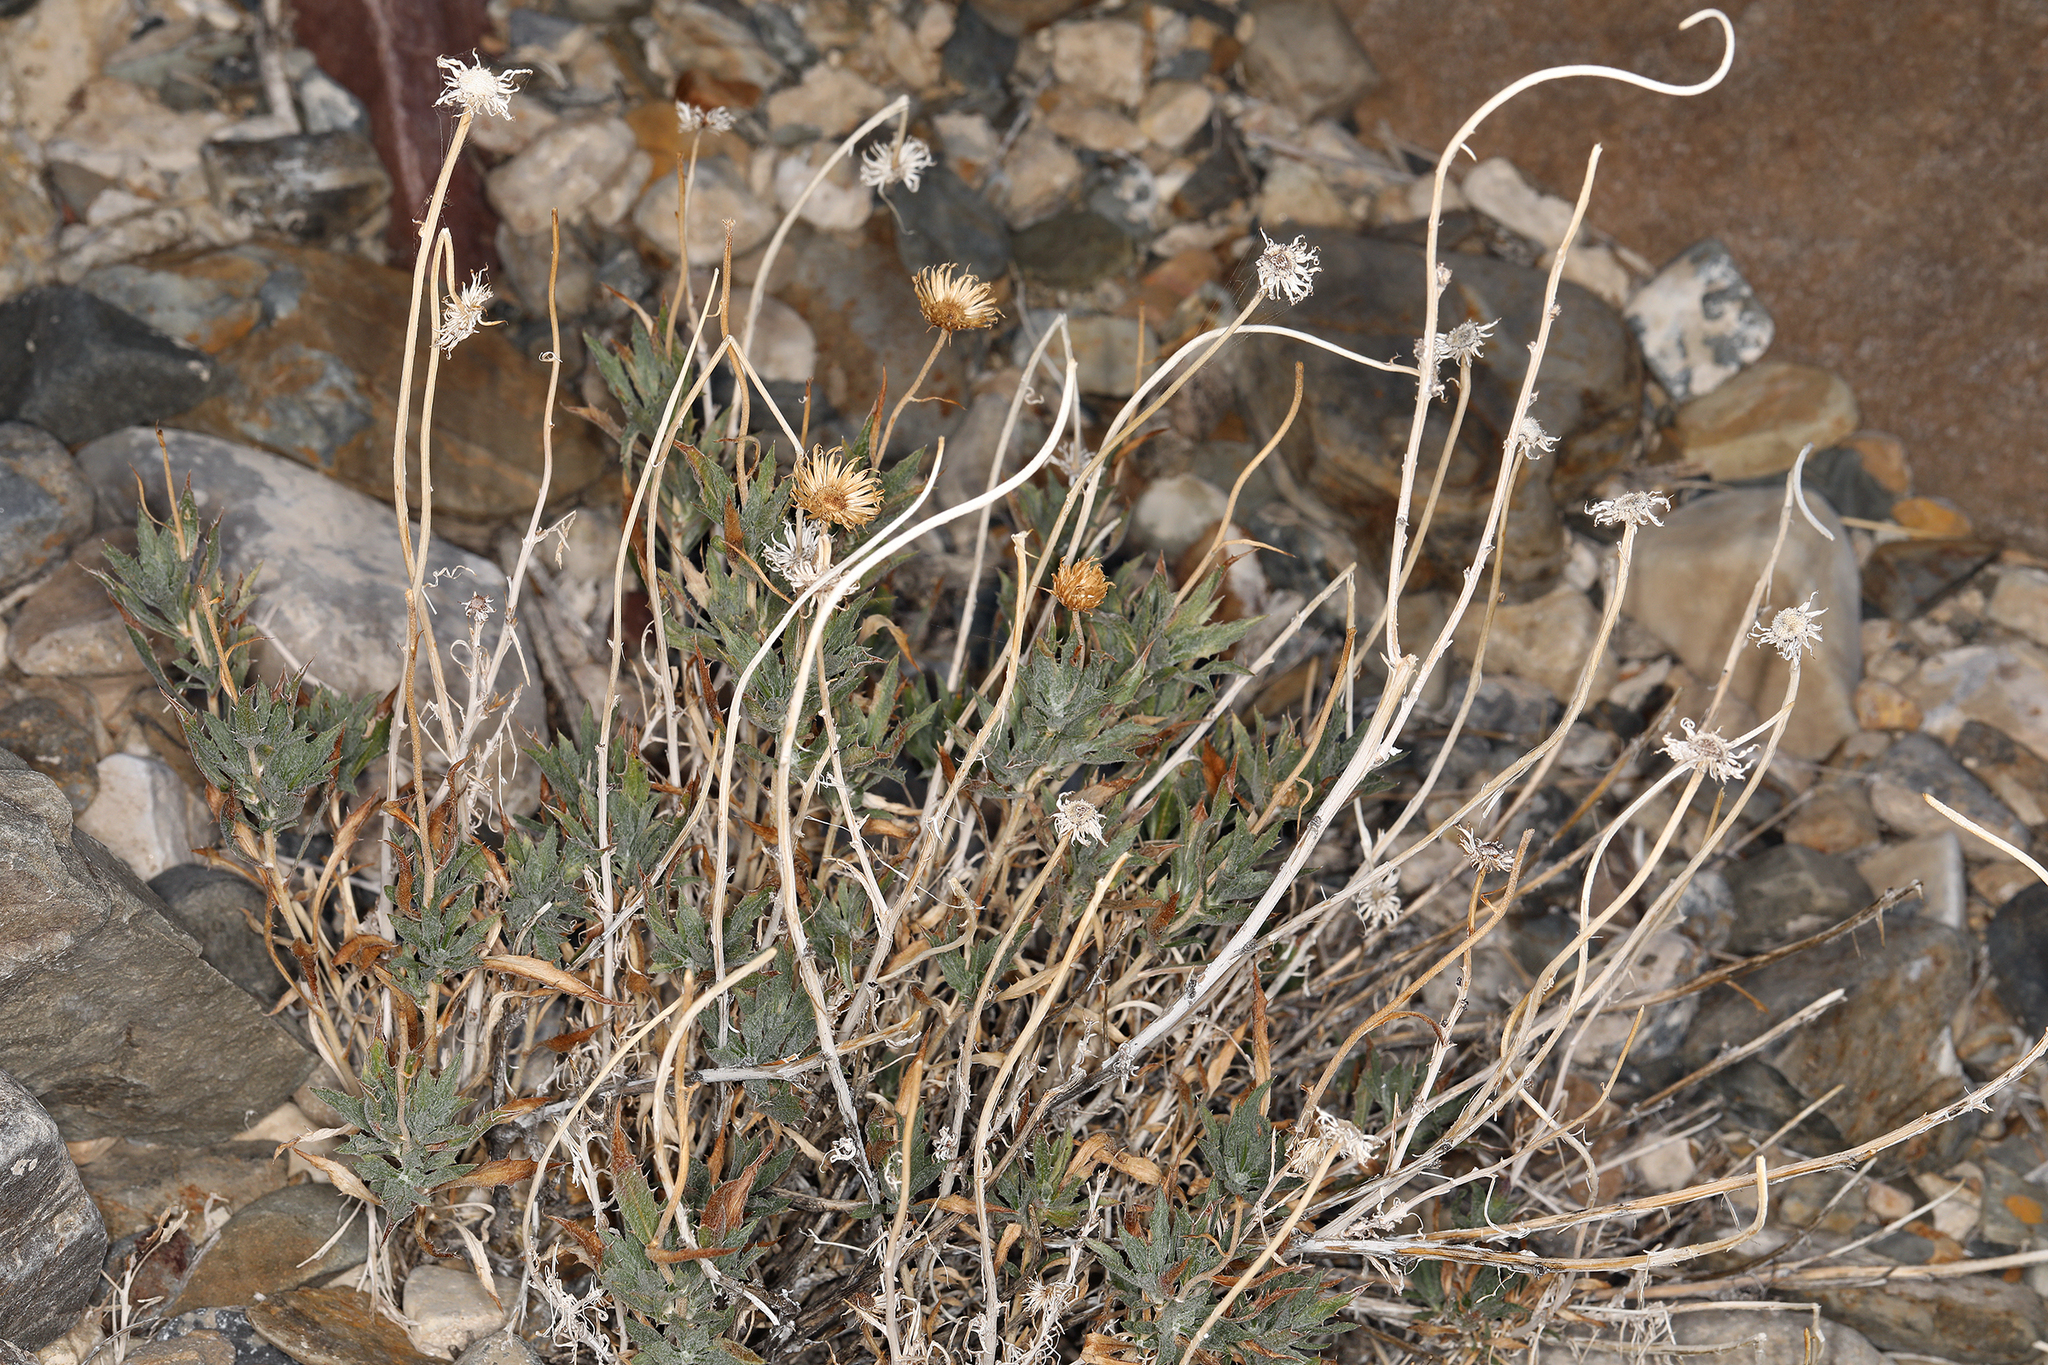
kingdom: Plantae
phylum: Tracheophyta
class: Magnoliopsida
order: Asterales
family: Asteraceae
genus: Xylorhiza
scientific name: Xylorhiza tortifolia
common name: Hurt-leaf woody-aster
